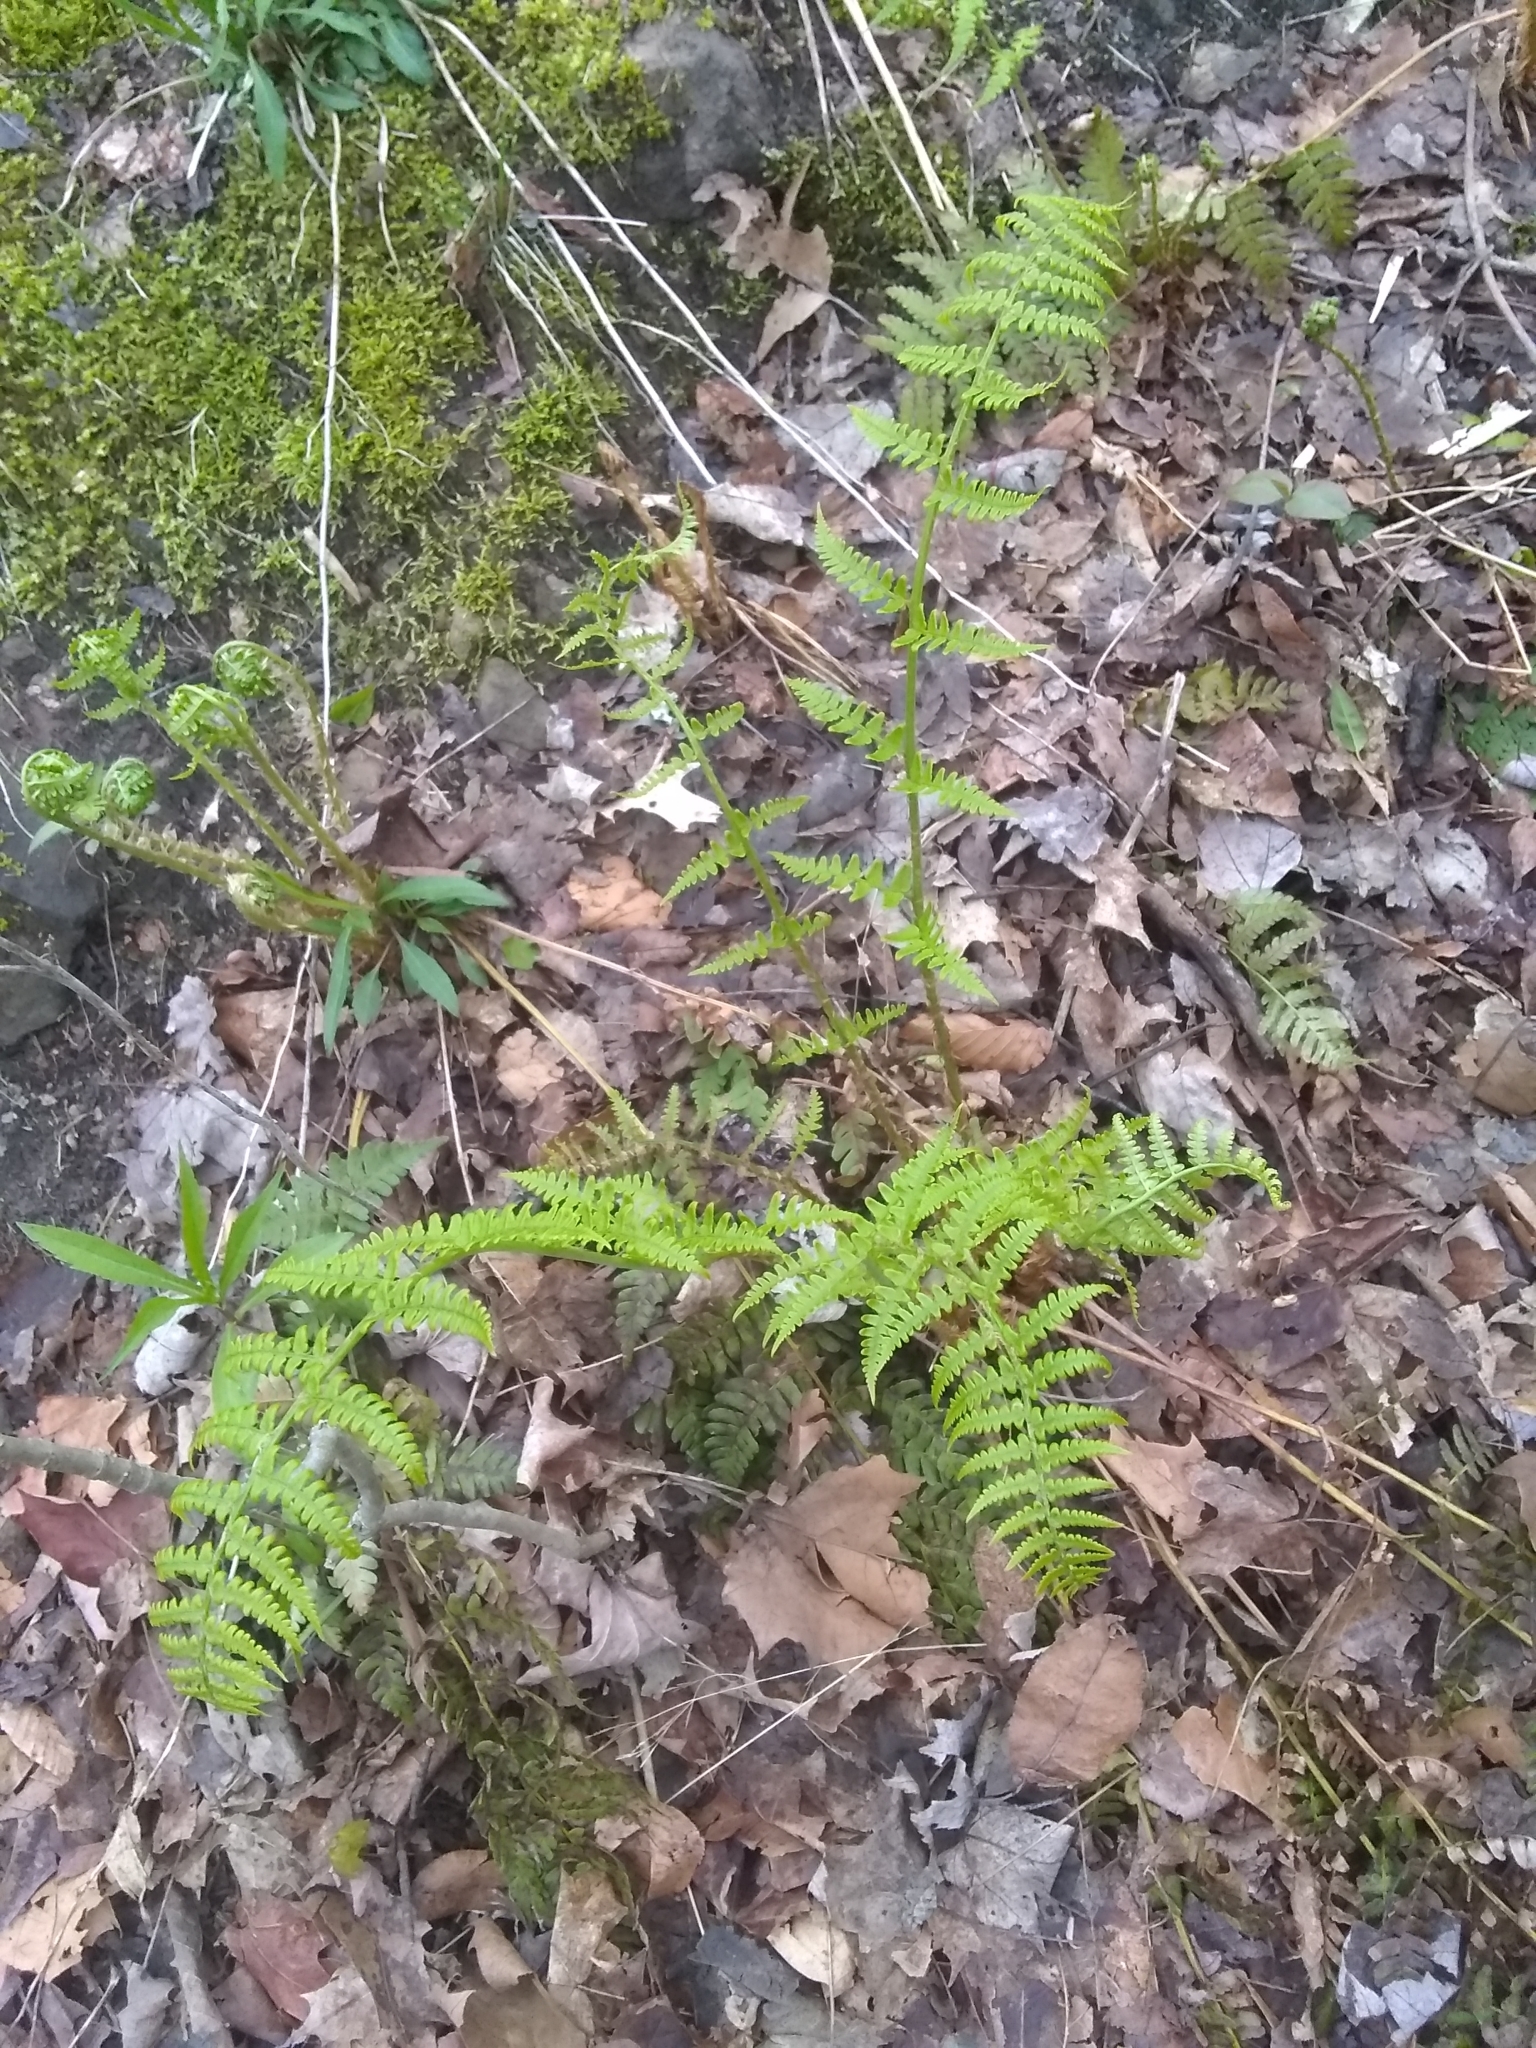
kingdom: Plantae
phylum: Tracheophyta
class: Polypodiopsida
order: Polypodiales
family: Dryopteridaceae
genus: Dryopteris
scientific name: Dryopteris marginalis
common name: Marginal wood fern
